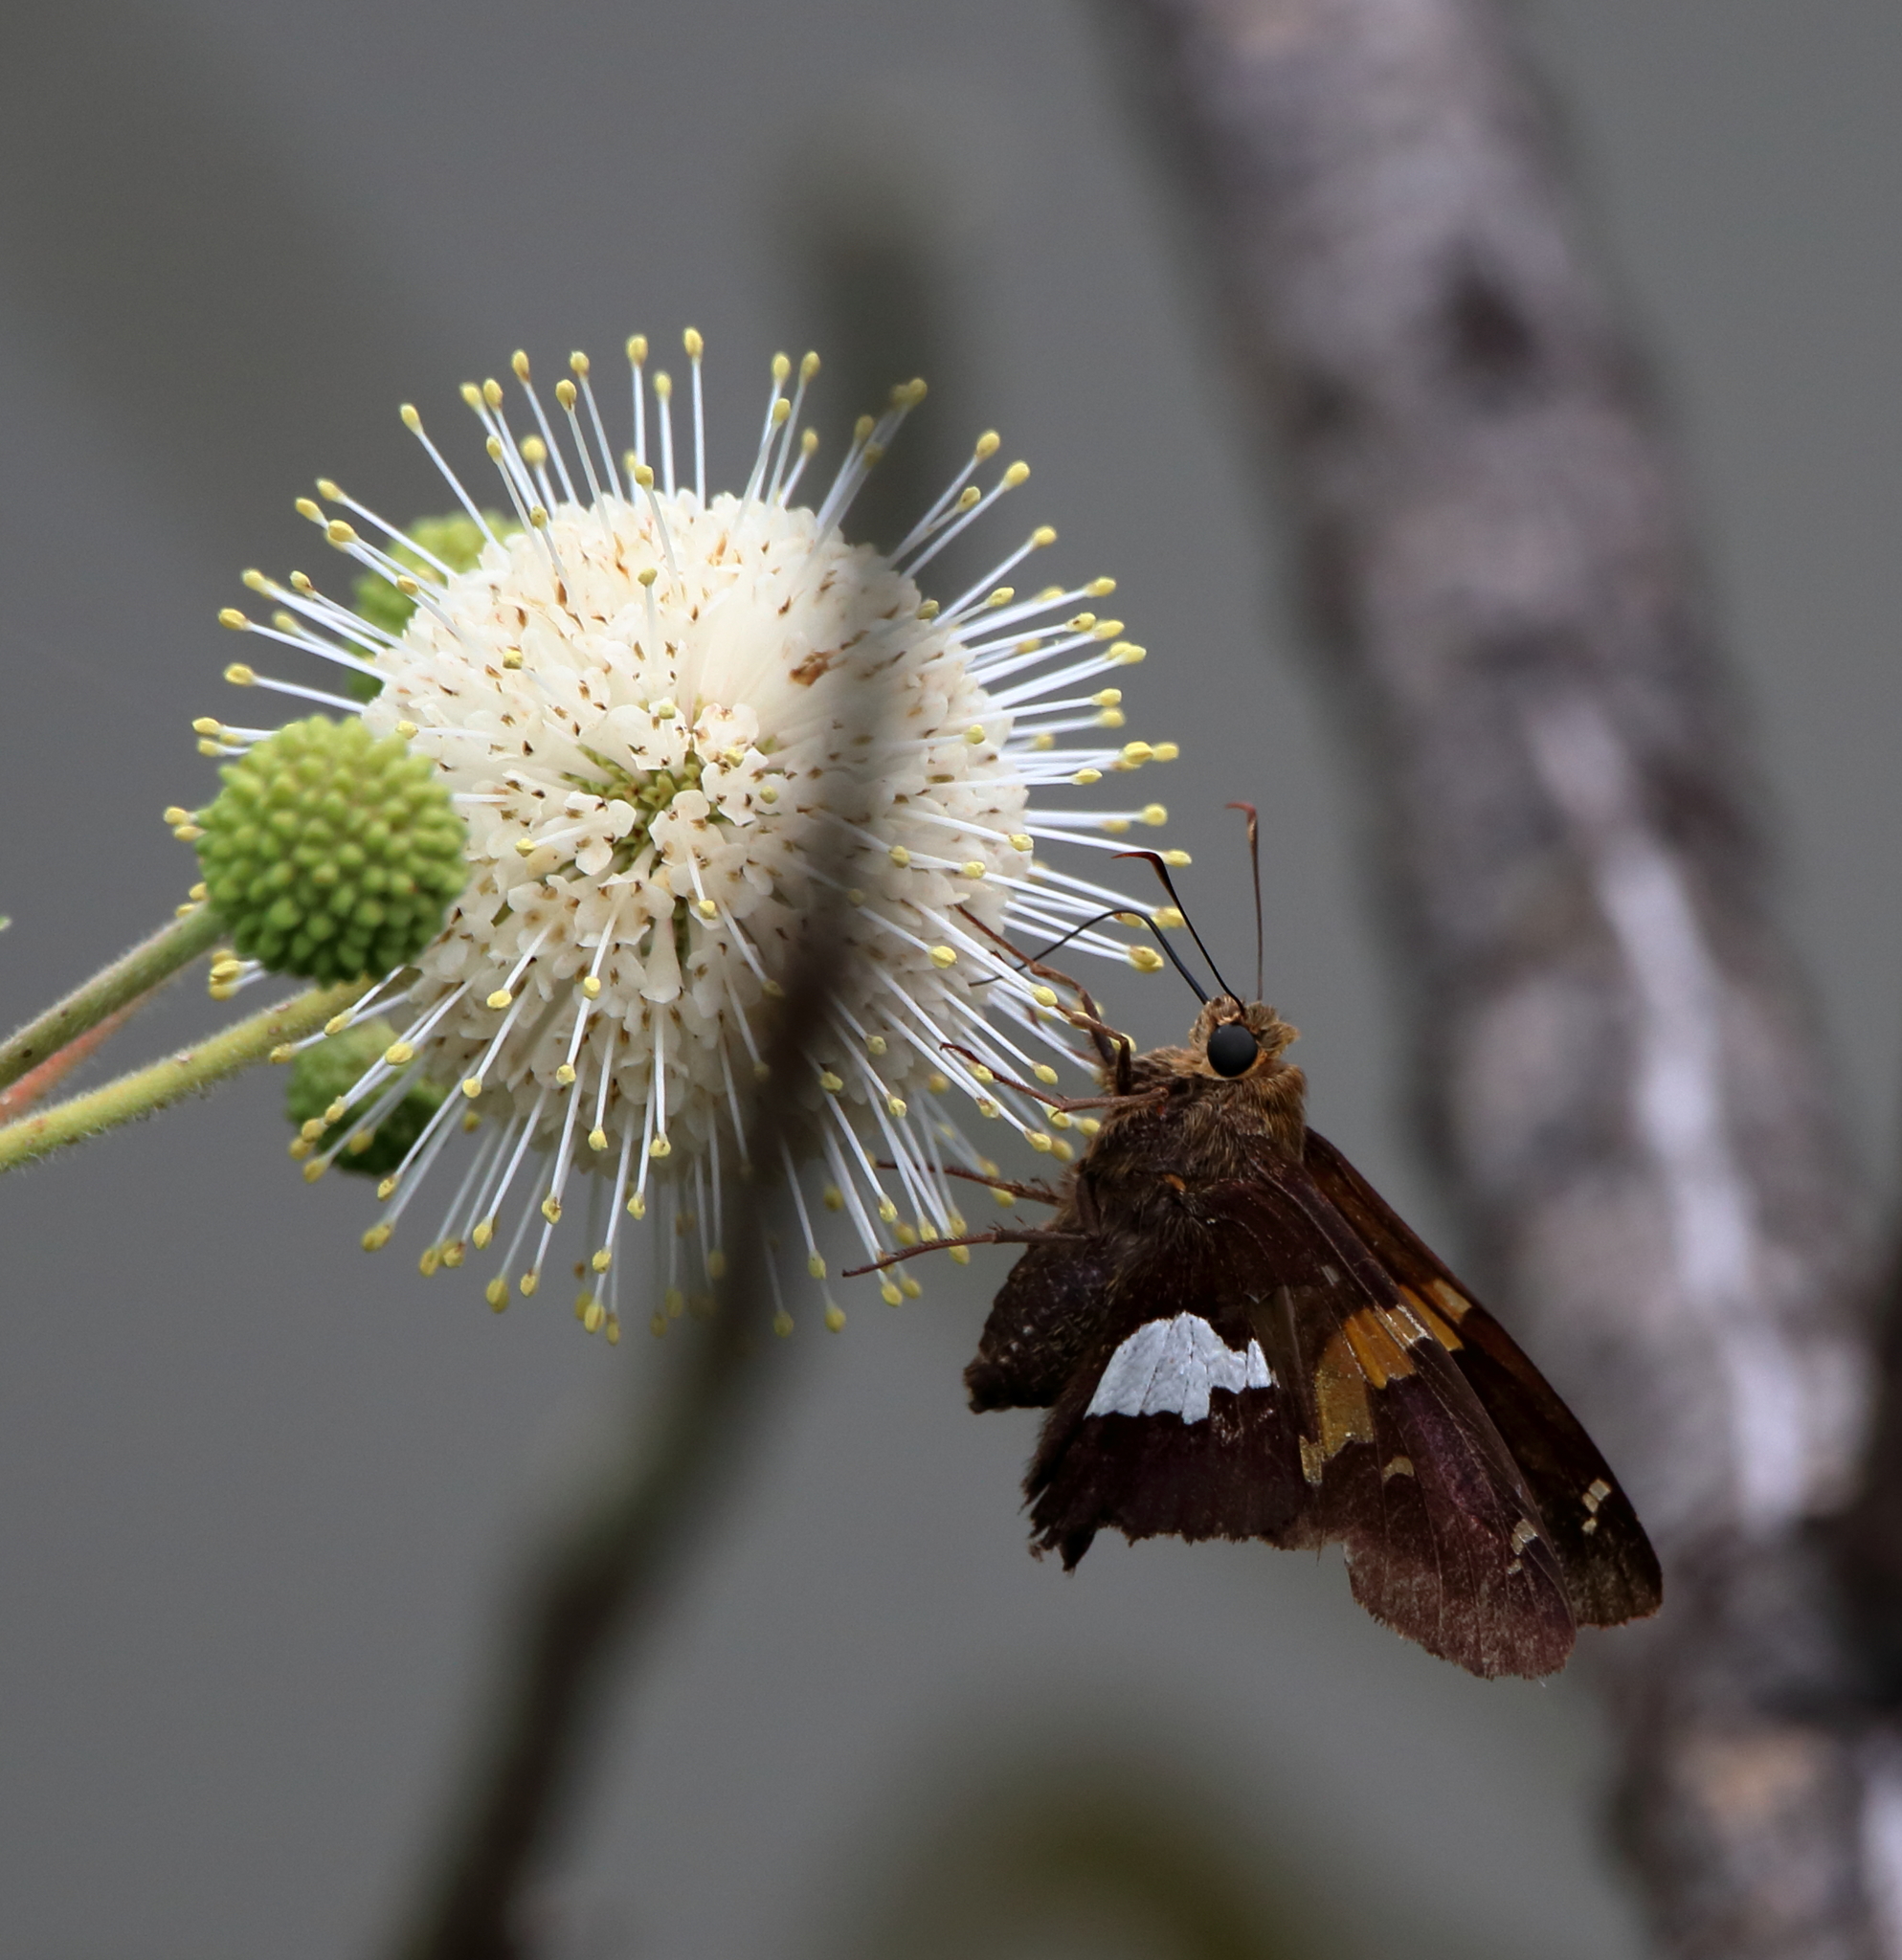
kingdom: Animalia
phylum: Arthropoda
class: Insecta
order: Lepidoptera
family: Hesperiidae
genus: Epargyreus
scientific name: Epargyreus clarus
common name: Silver-spotted skipper
